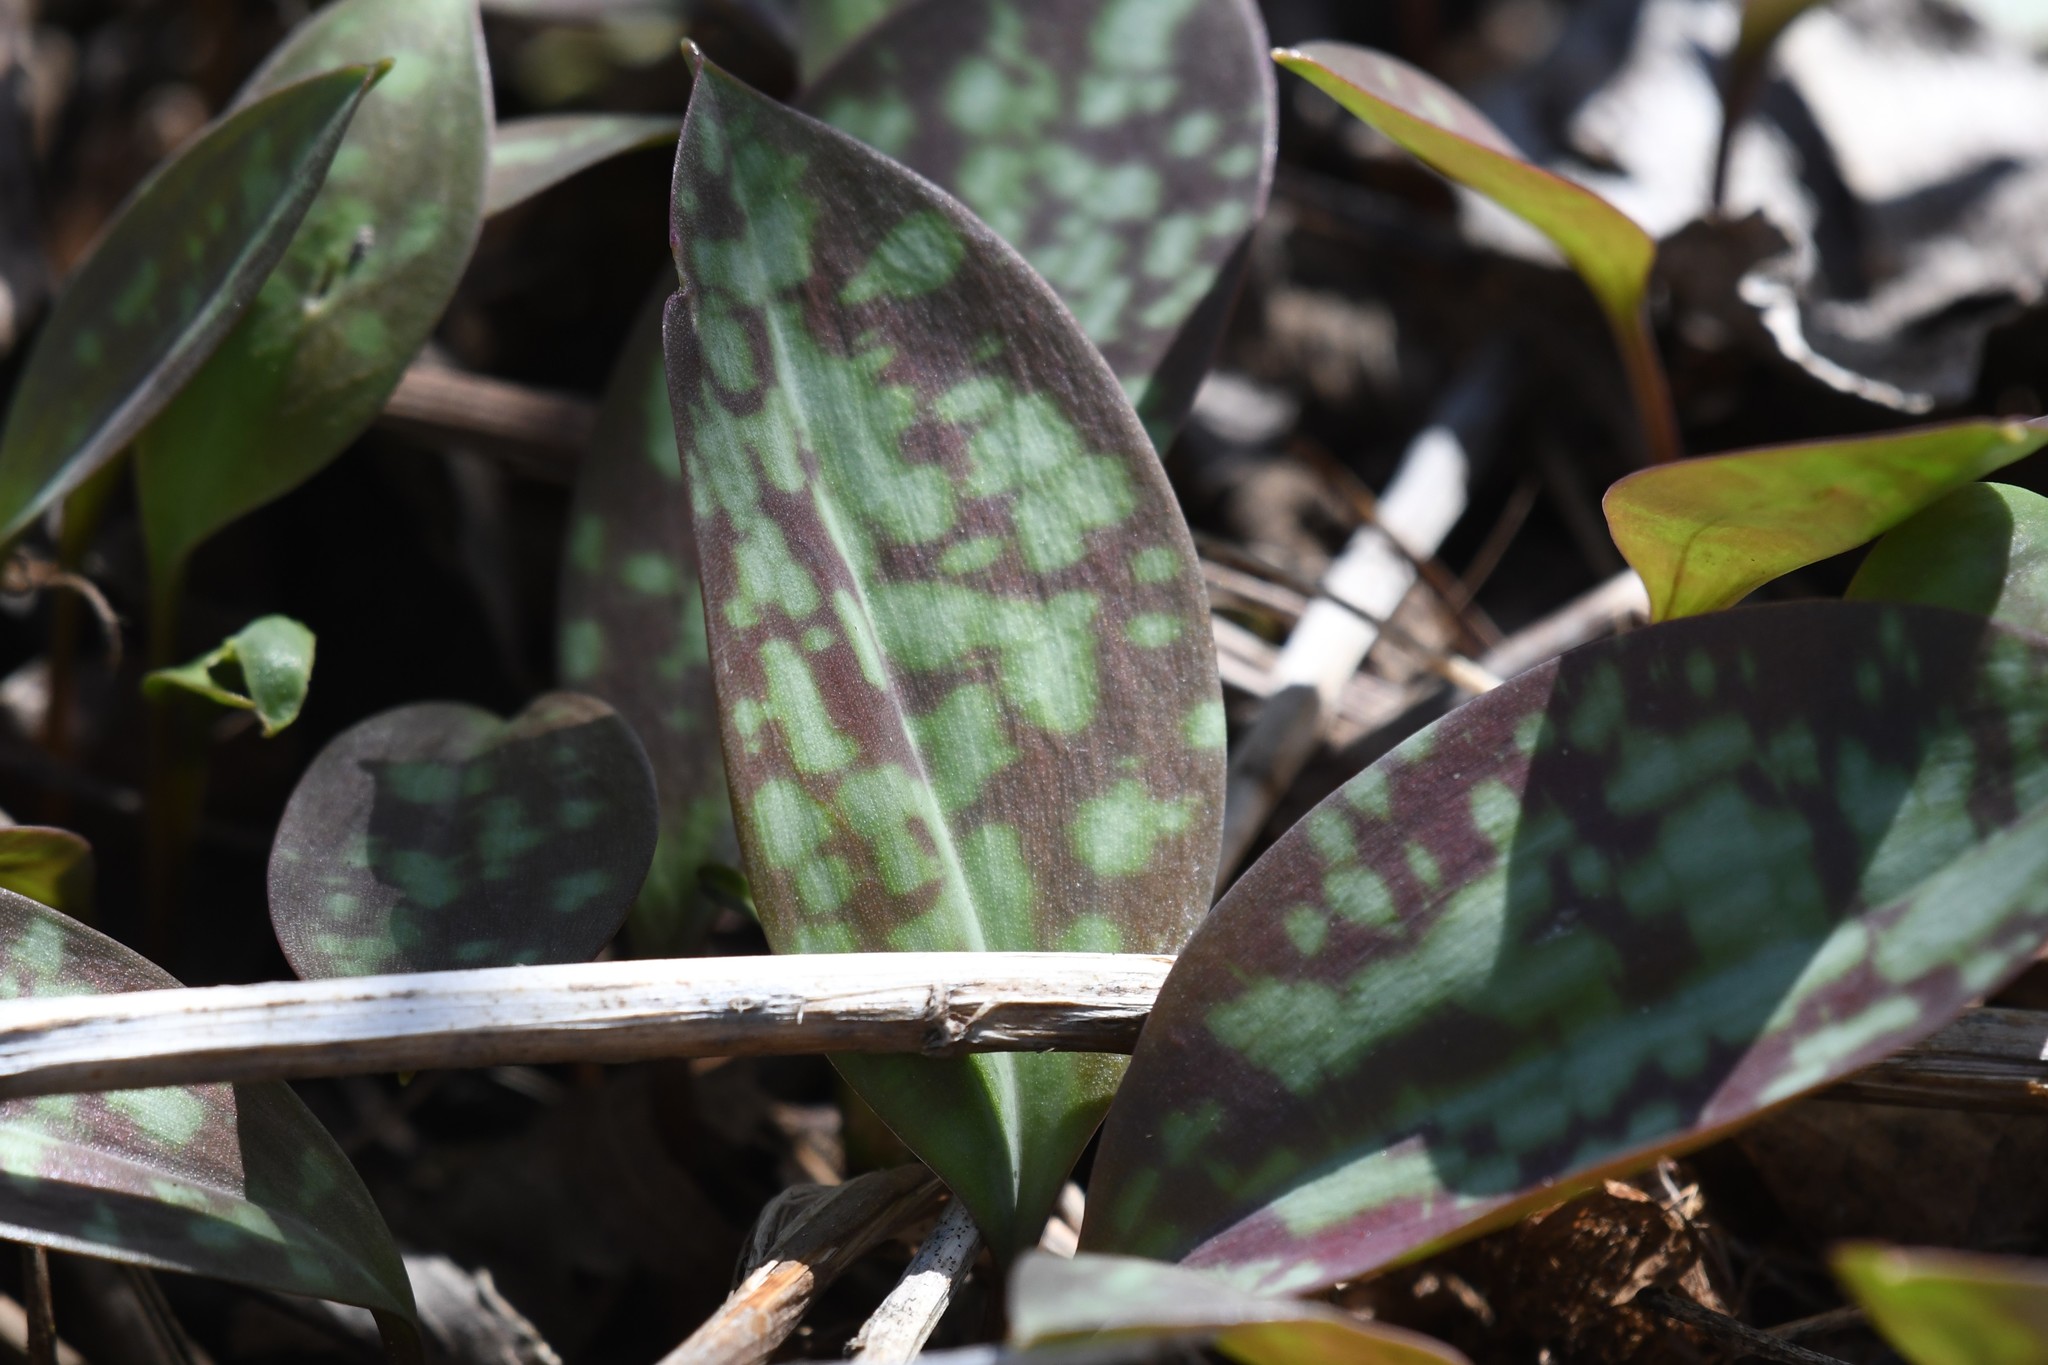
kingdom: Plantae
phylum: Tracheophyta
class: Liliopsida
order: Liliales
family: Liliaceae
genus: Erythronium
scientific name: Erythronium americanum
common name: Yellow adder's-tongue
